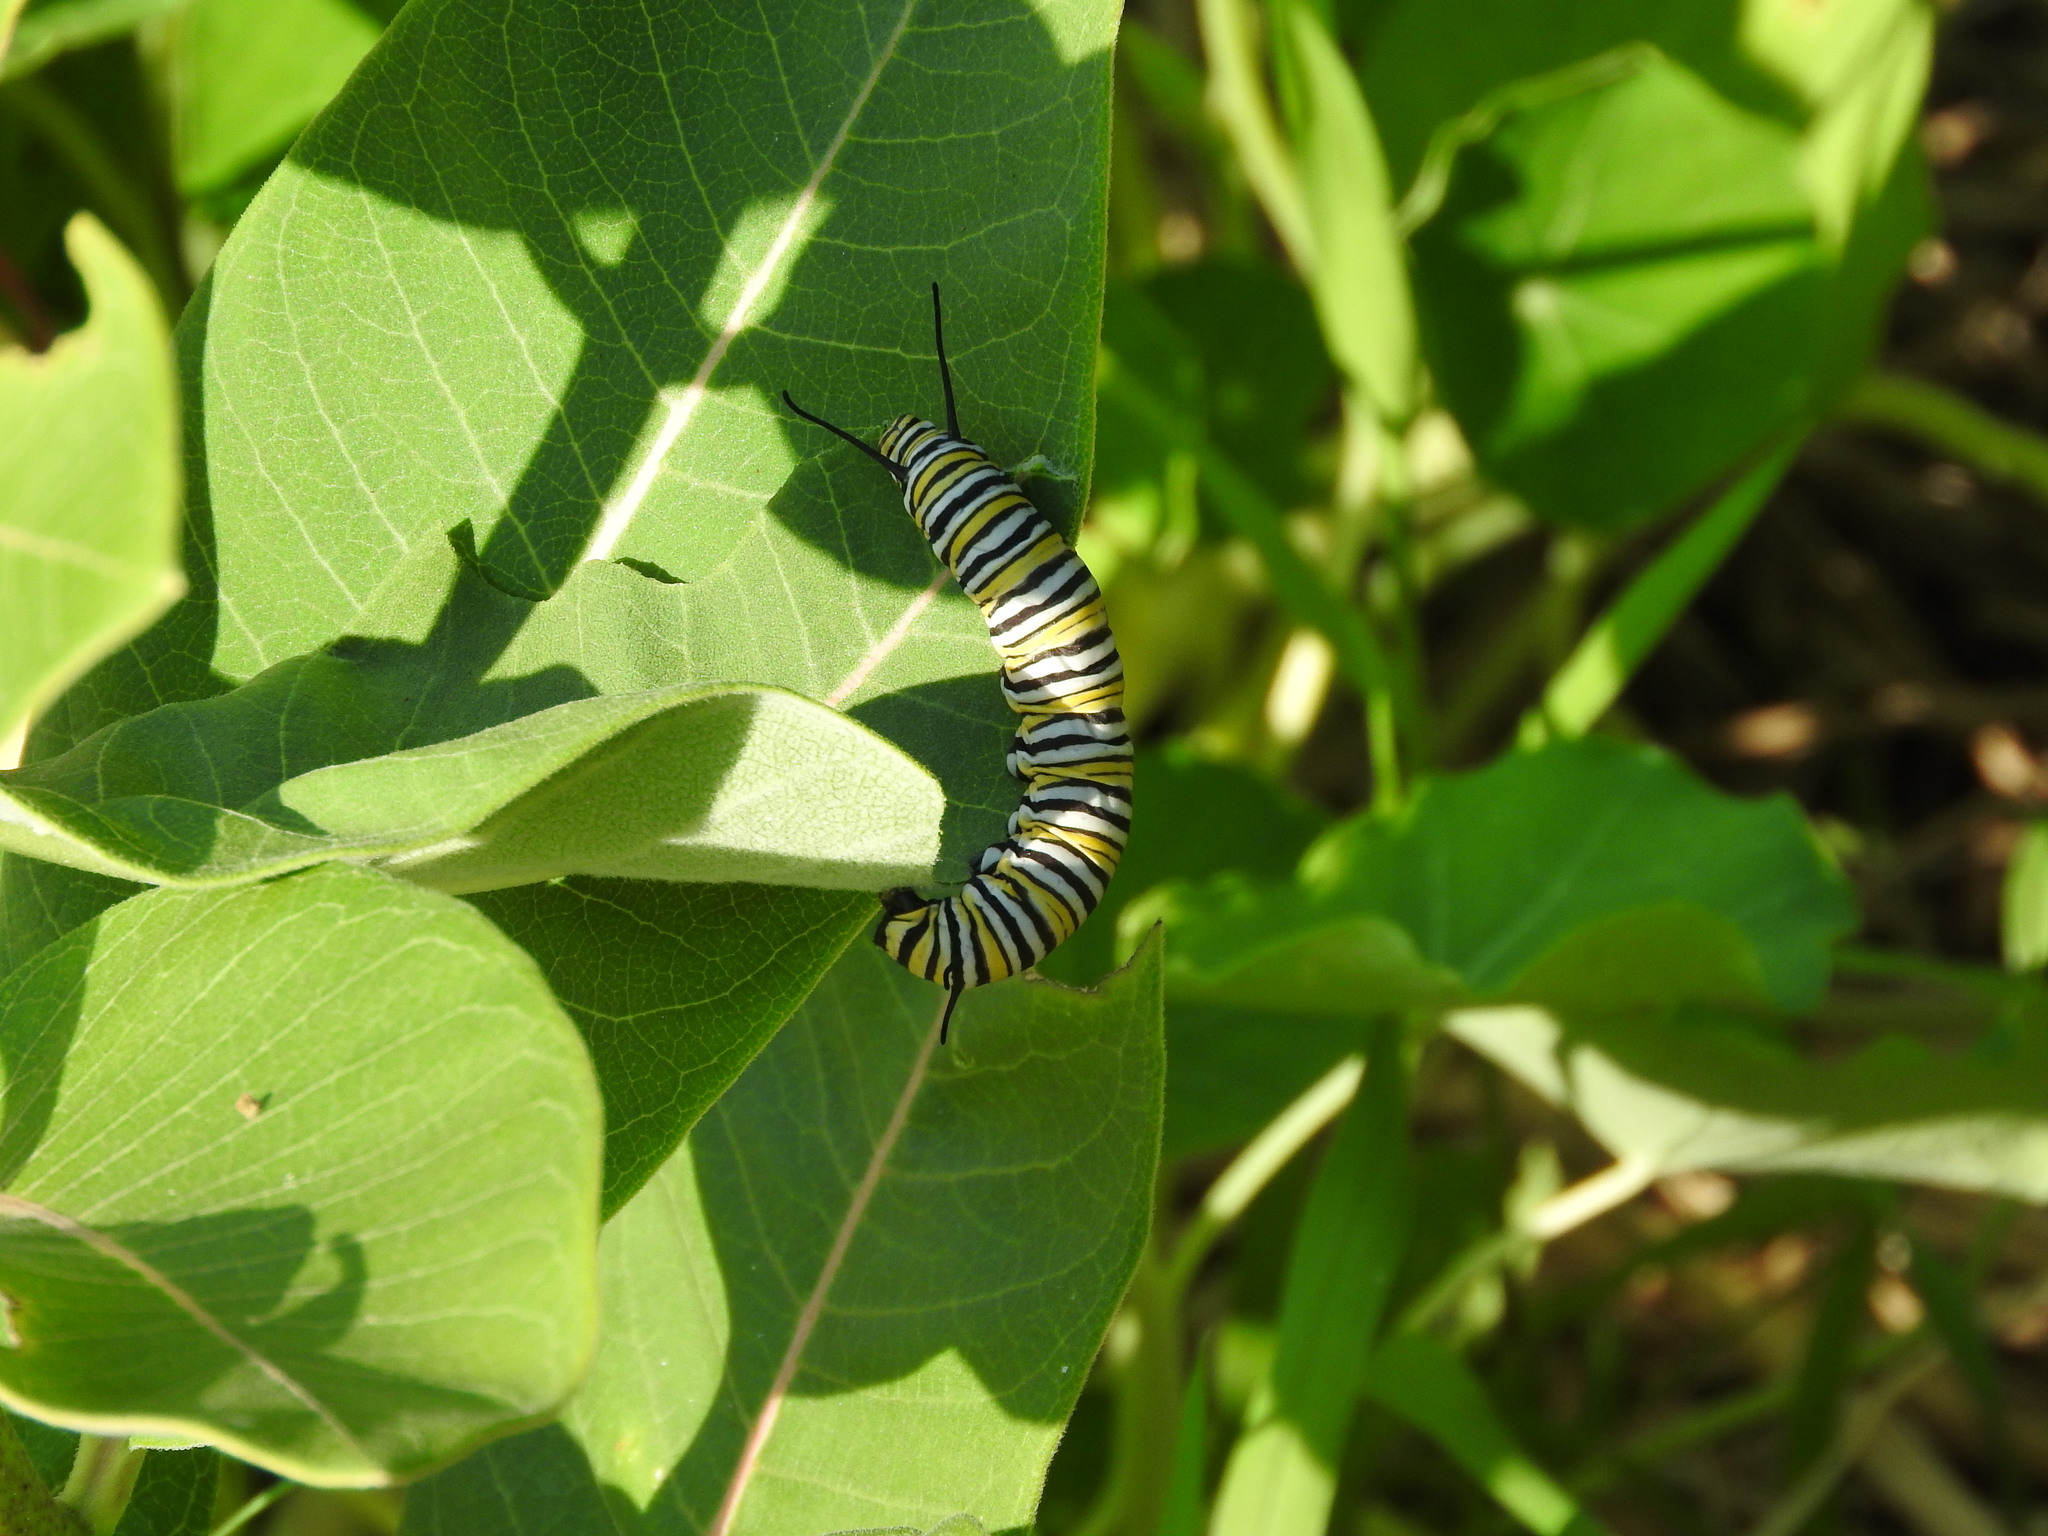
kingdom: Animalia
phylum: Arthropoda
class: Insecta
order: Lepidoptera
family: Nymphalidae
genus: Danaus
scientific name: Danaus plexippus
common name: Monarch
